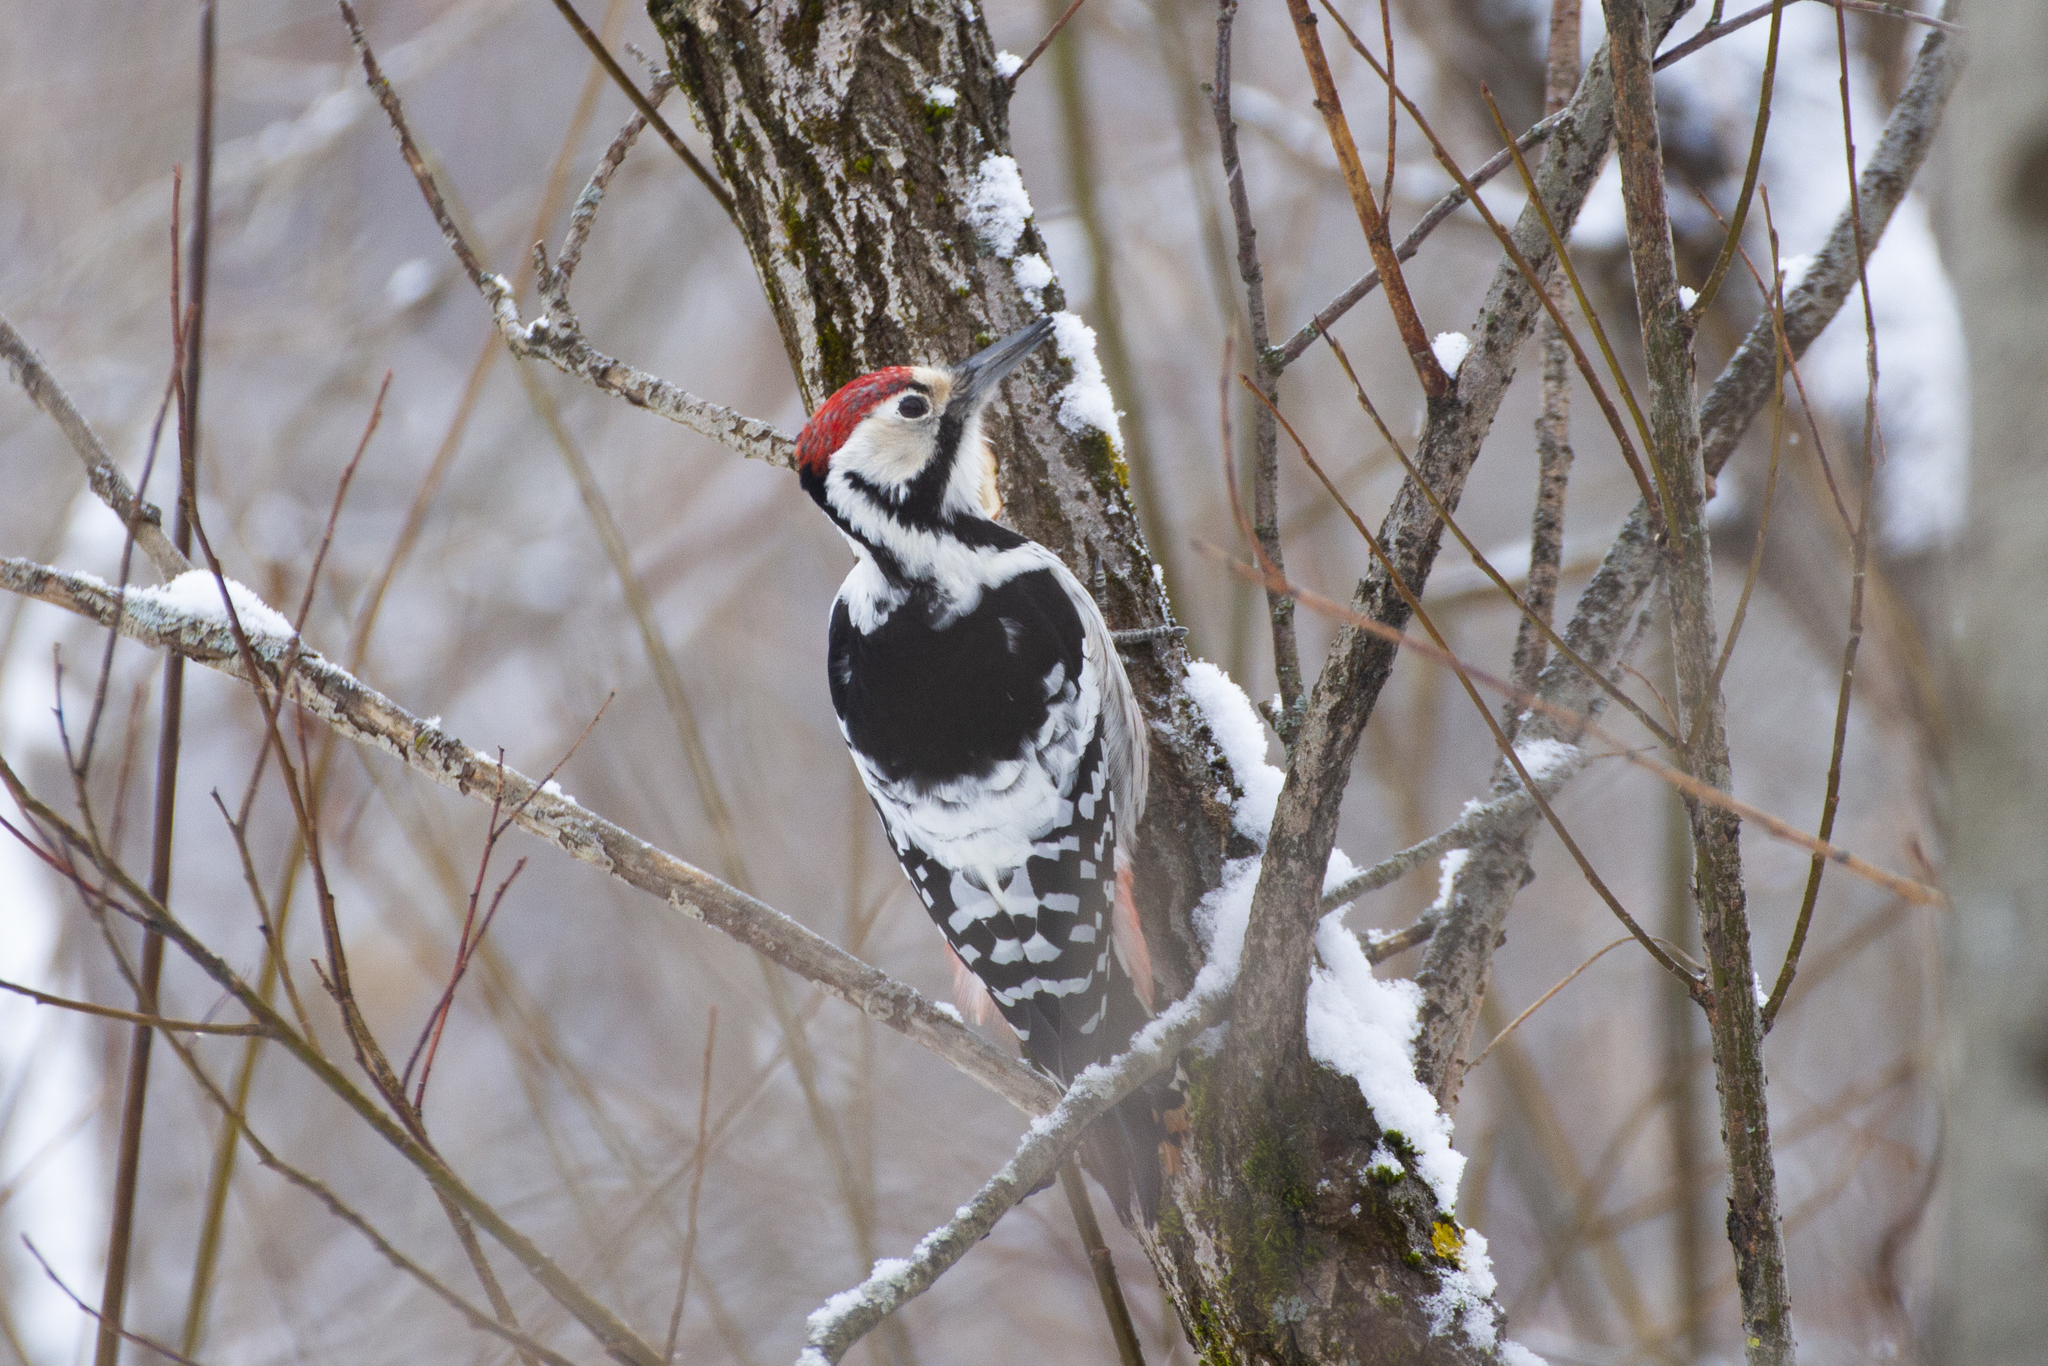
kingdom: Animalia
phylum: Chordata
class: Aves
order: Piciformes
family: Picidae
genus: Dendrocopos
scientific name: Dendrocopos leucotos
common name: White-backed woodpecker
